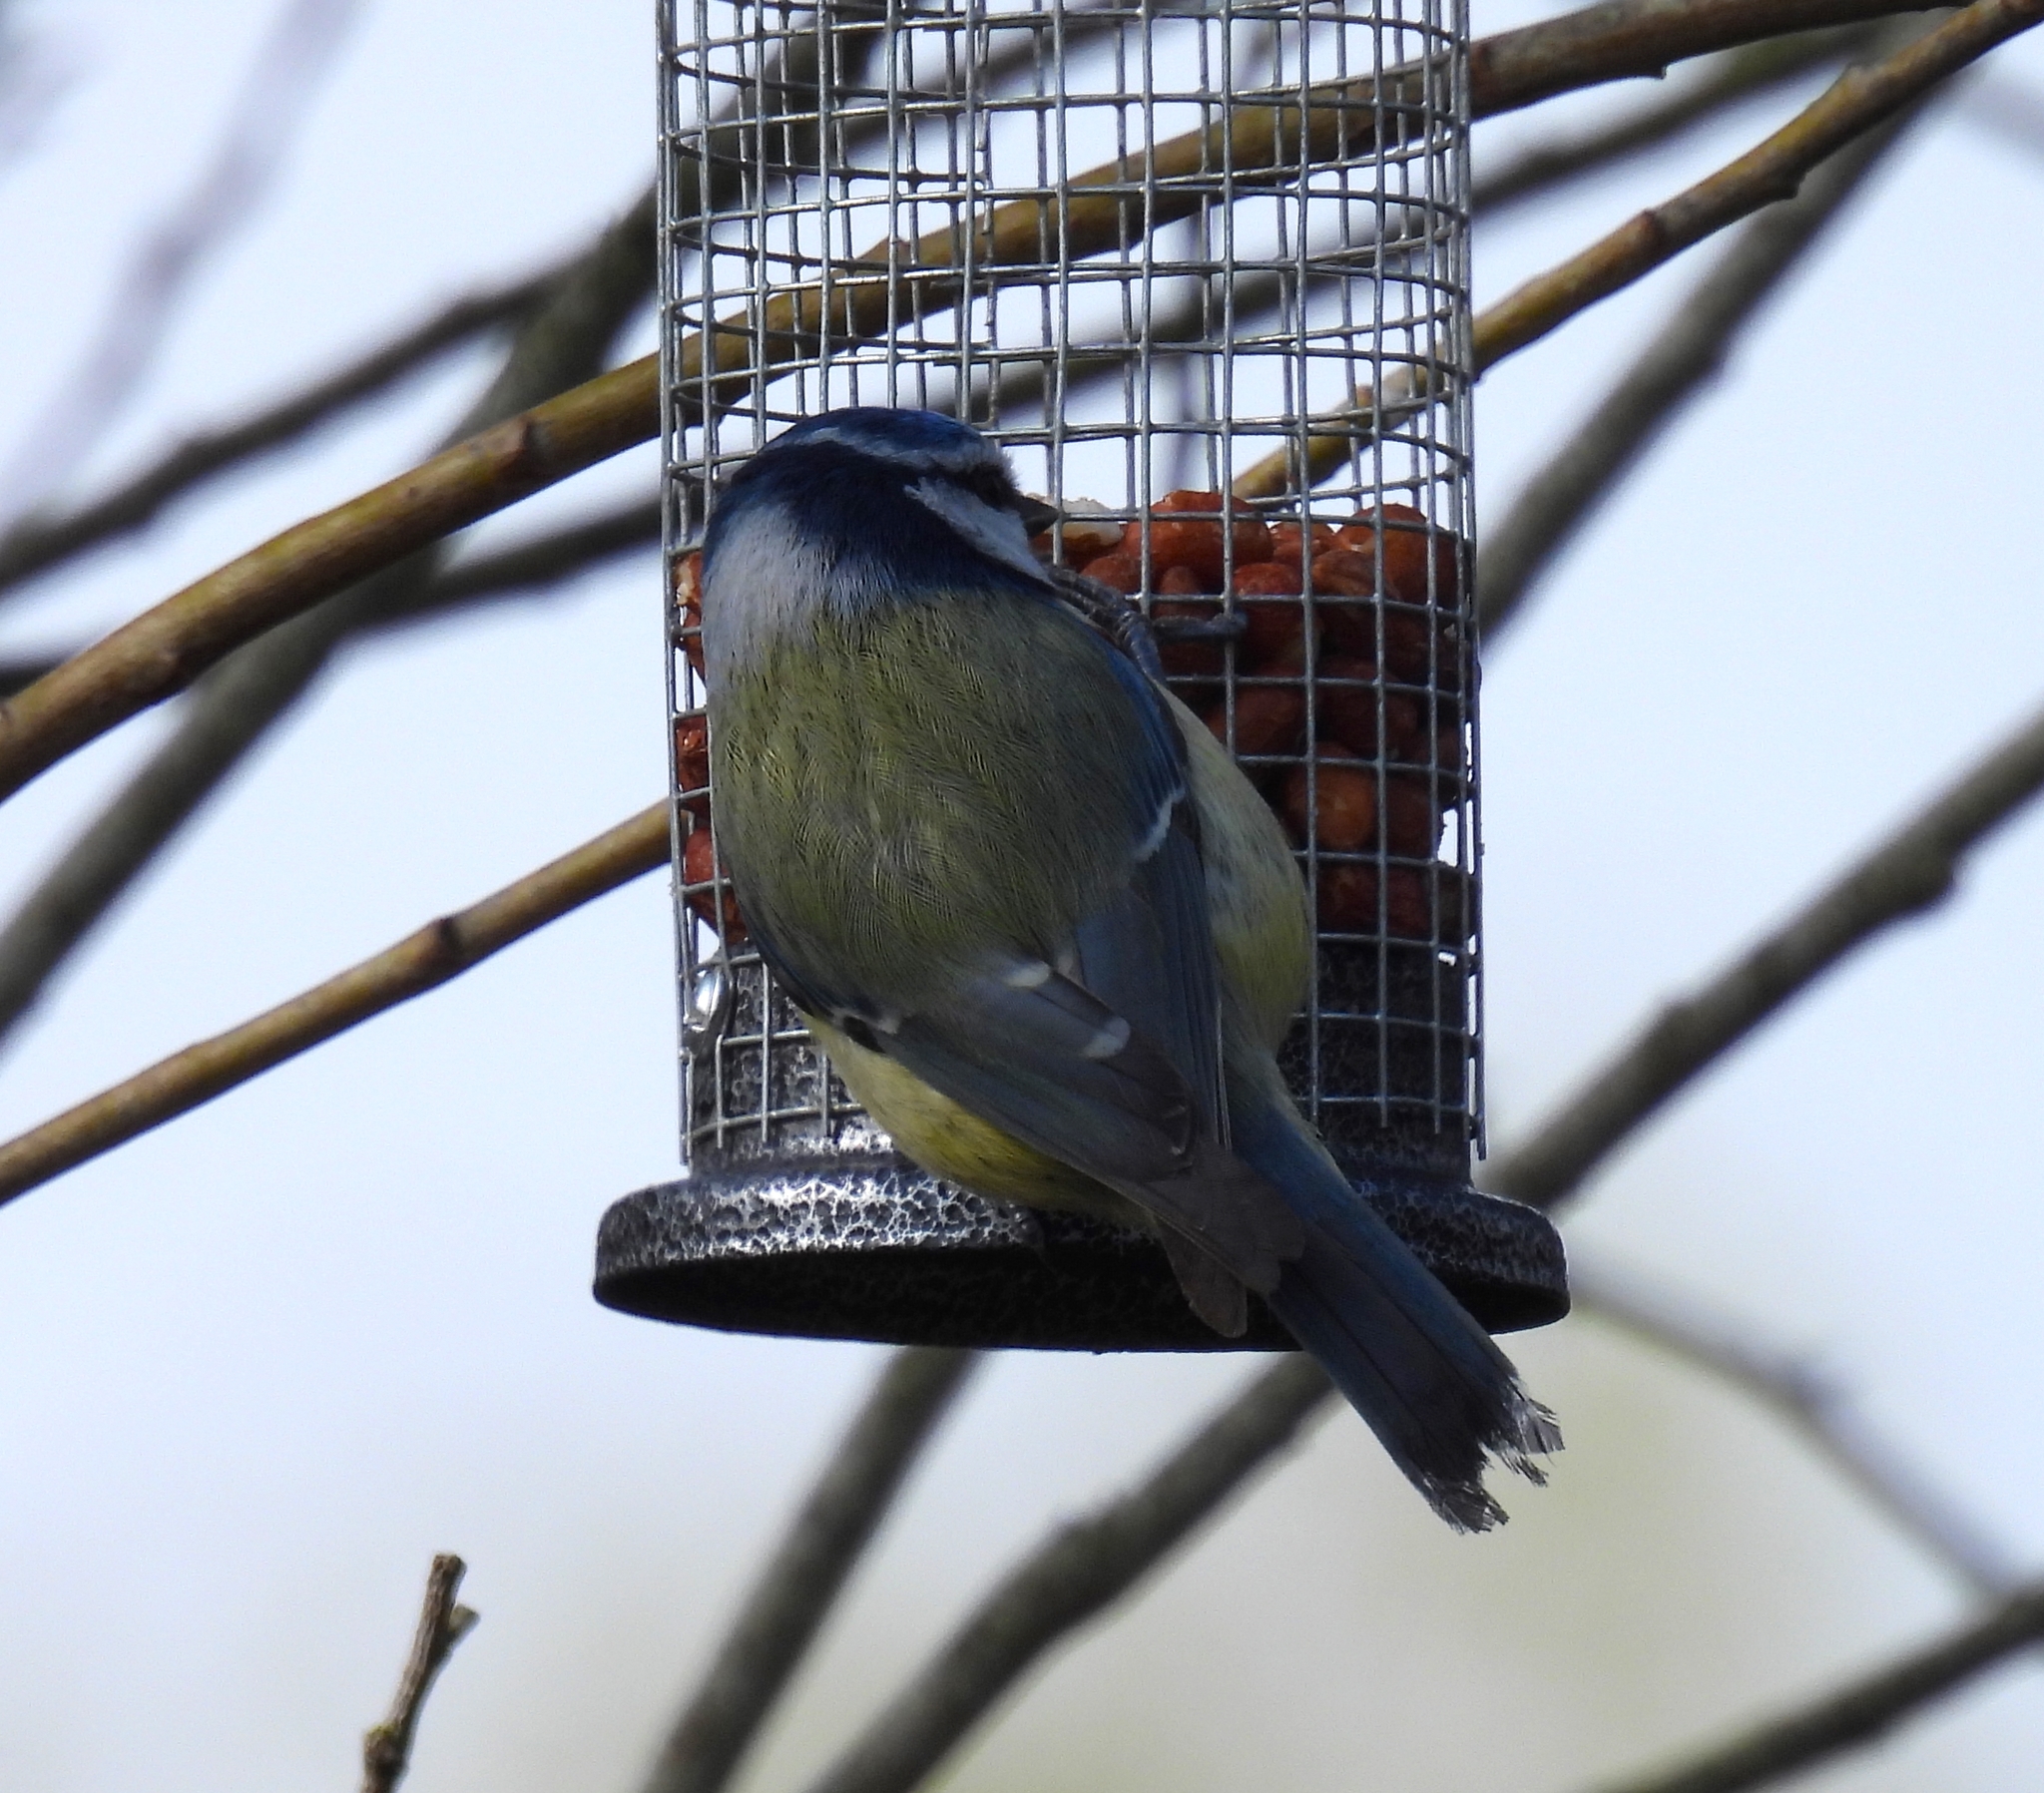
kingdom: Animalia
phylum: Chordata
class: Aves
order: Passeriformes
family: Paridae
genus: Cyanistes
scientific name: Cyanistes caeruleus
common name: Eurasian blue tit
